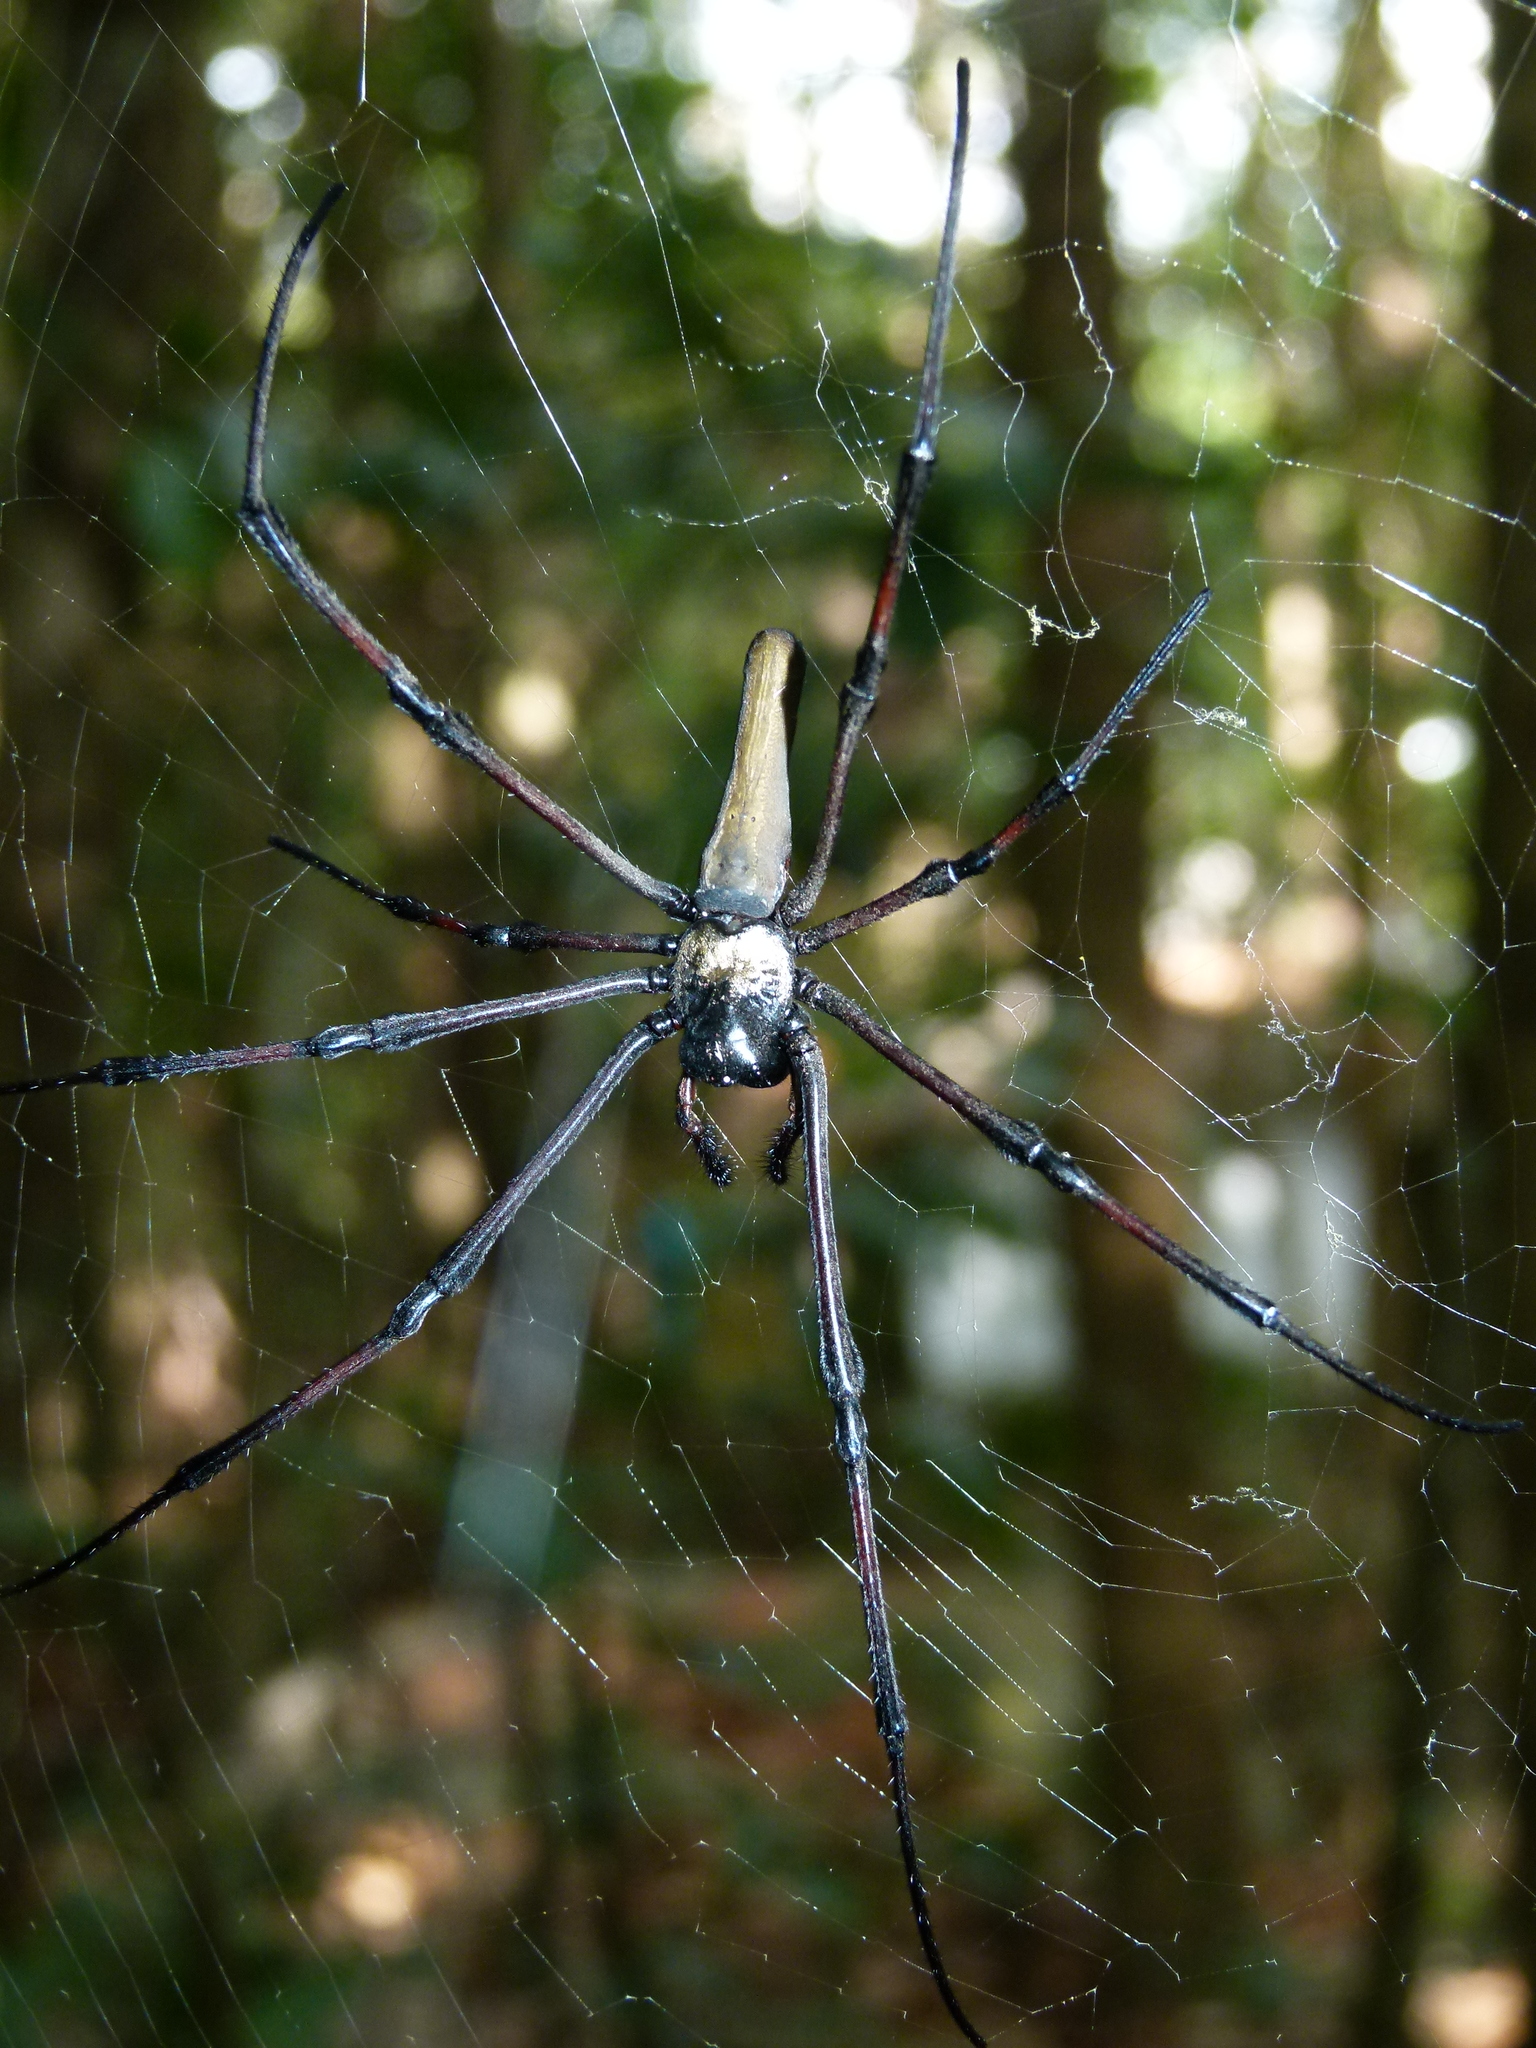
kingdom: Animalia
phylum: Arthropoda
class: Arachnida
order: Araneae
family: Araneidae
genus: Nephila
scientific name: Nephila pilipes
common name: Giant golden orb weaver
